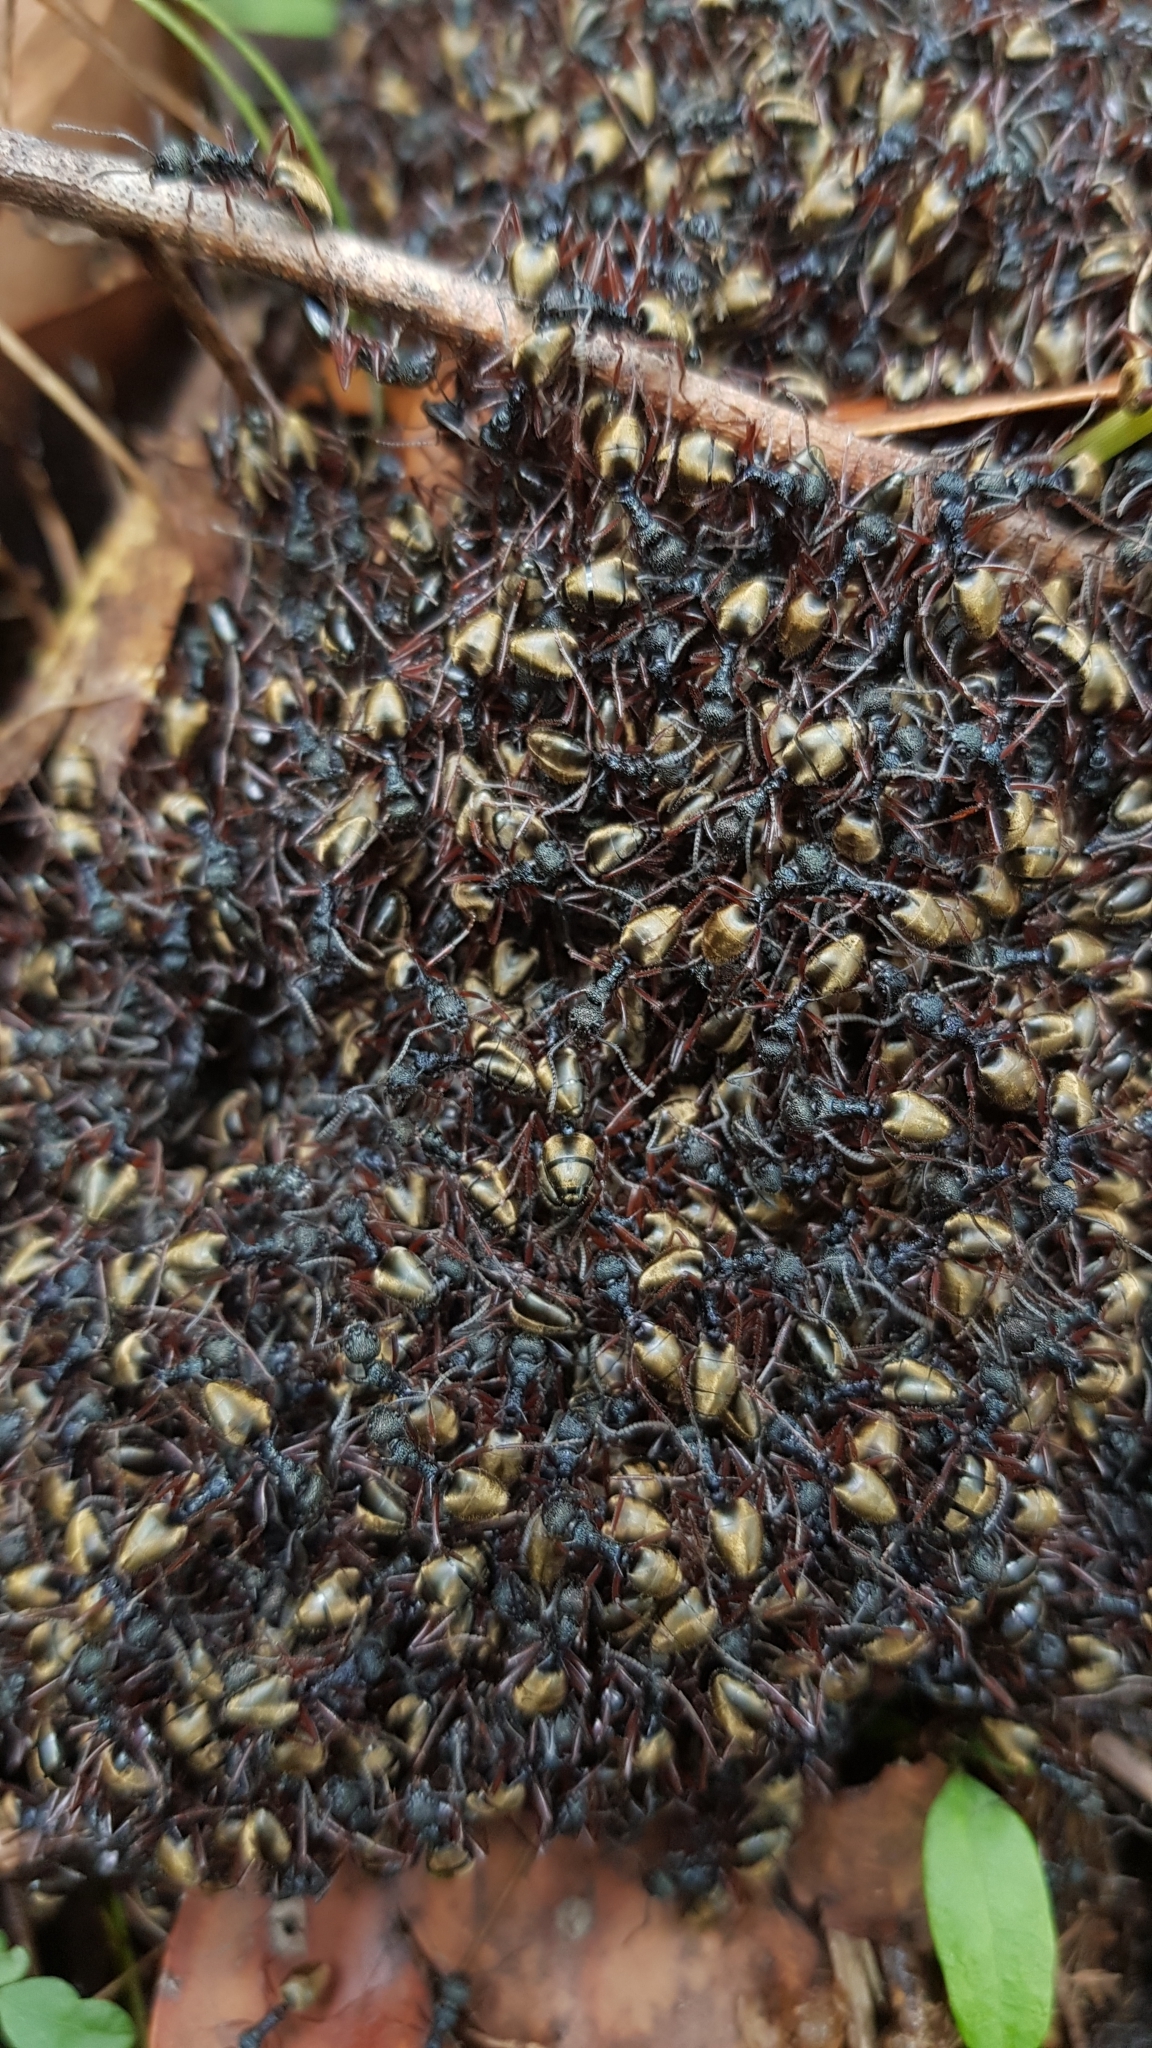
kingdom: Animalia
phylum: Arthropoda
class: Insecta
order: Hymenoptera
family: Formicidae
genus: Dolichoderus
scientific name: Dolichoderus doriae
